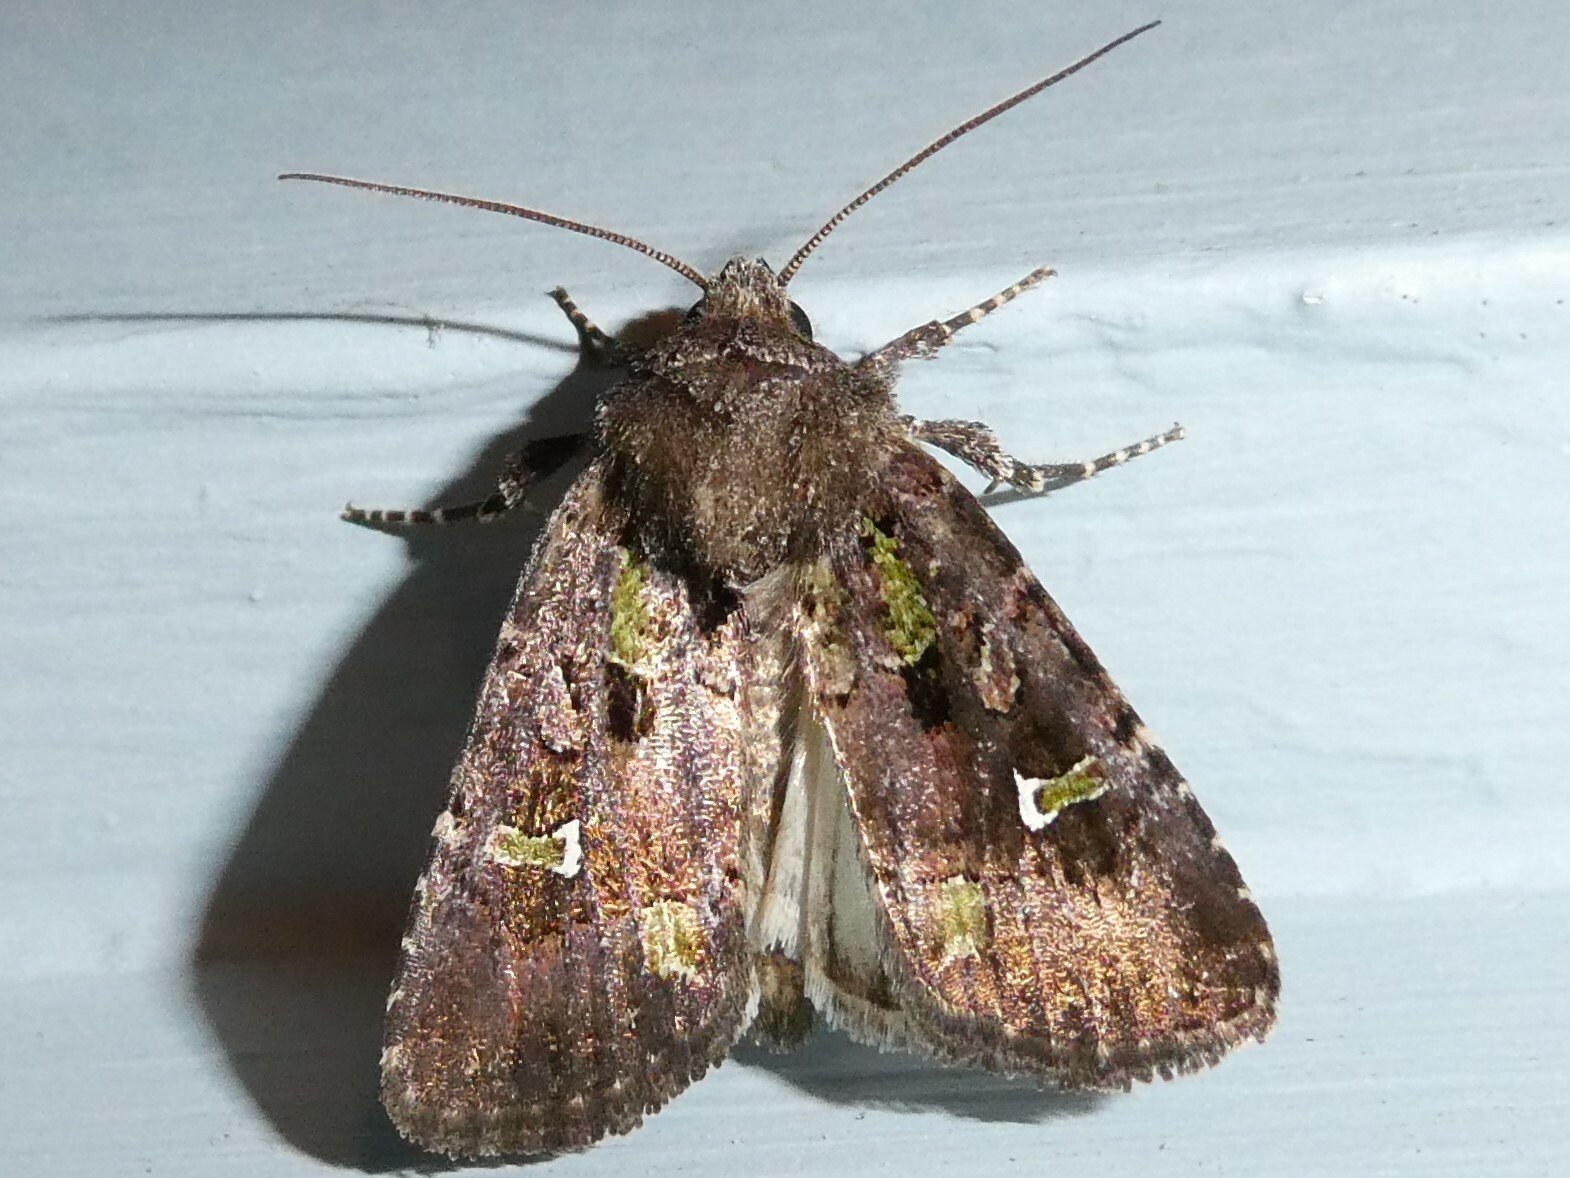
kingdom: Animalia
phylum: Arthropoda
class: Insecta
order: Lepidoptera
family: Noctuidae
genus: Lacinipolia
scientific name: Lacinipolia renigera
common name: Kidney-spotted minor
